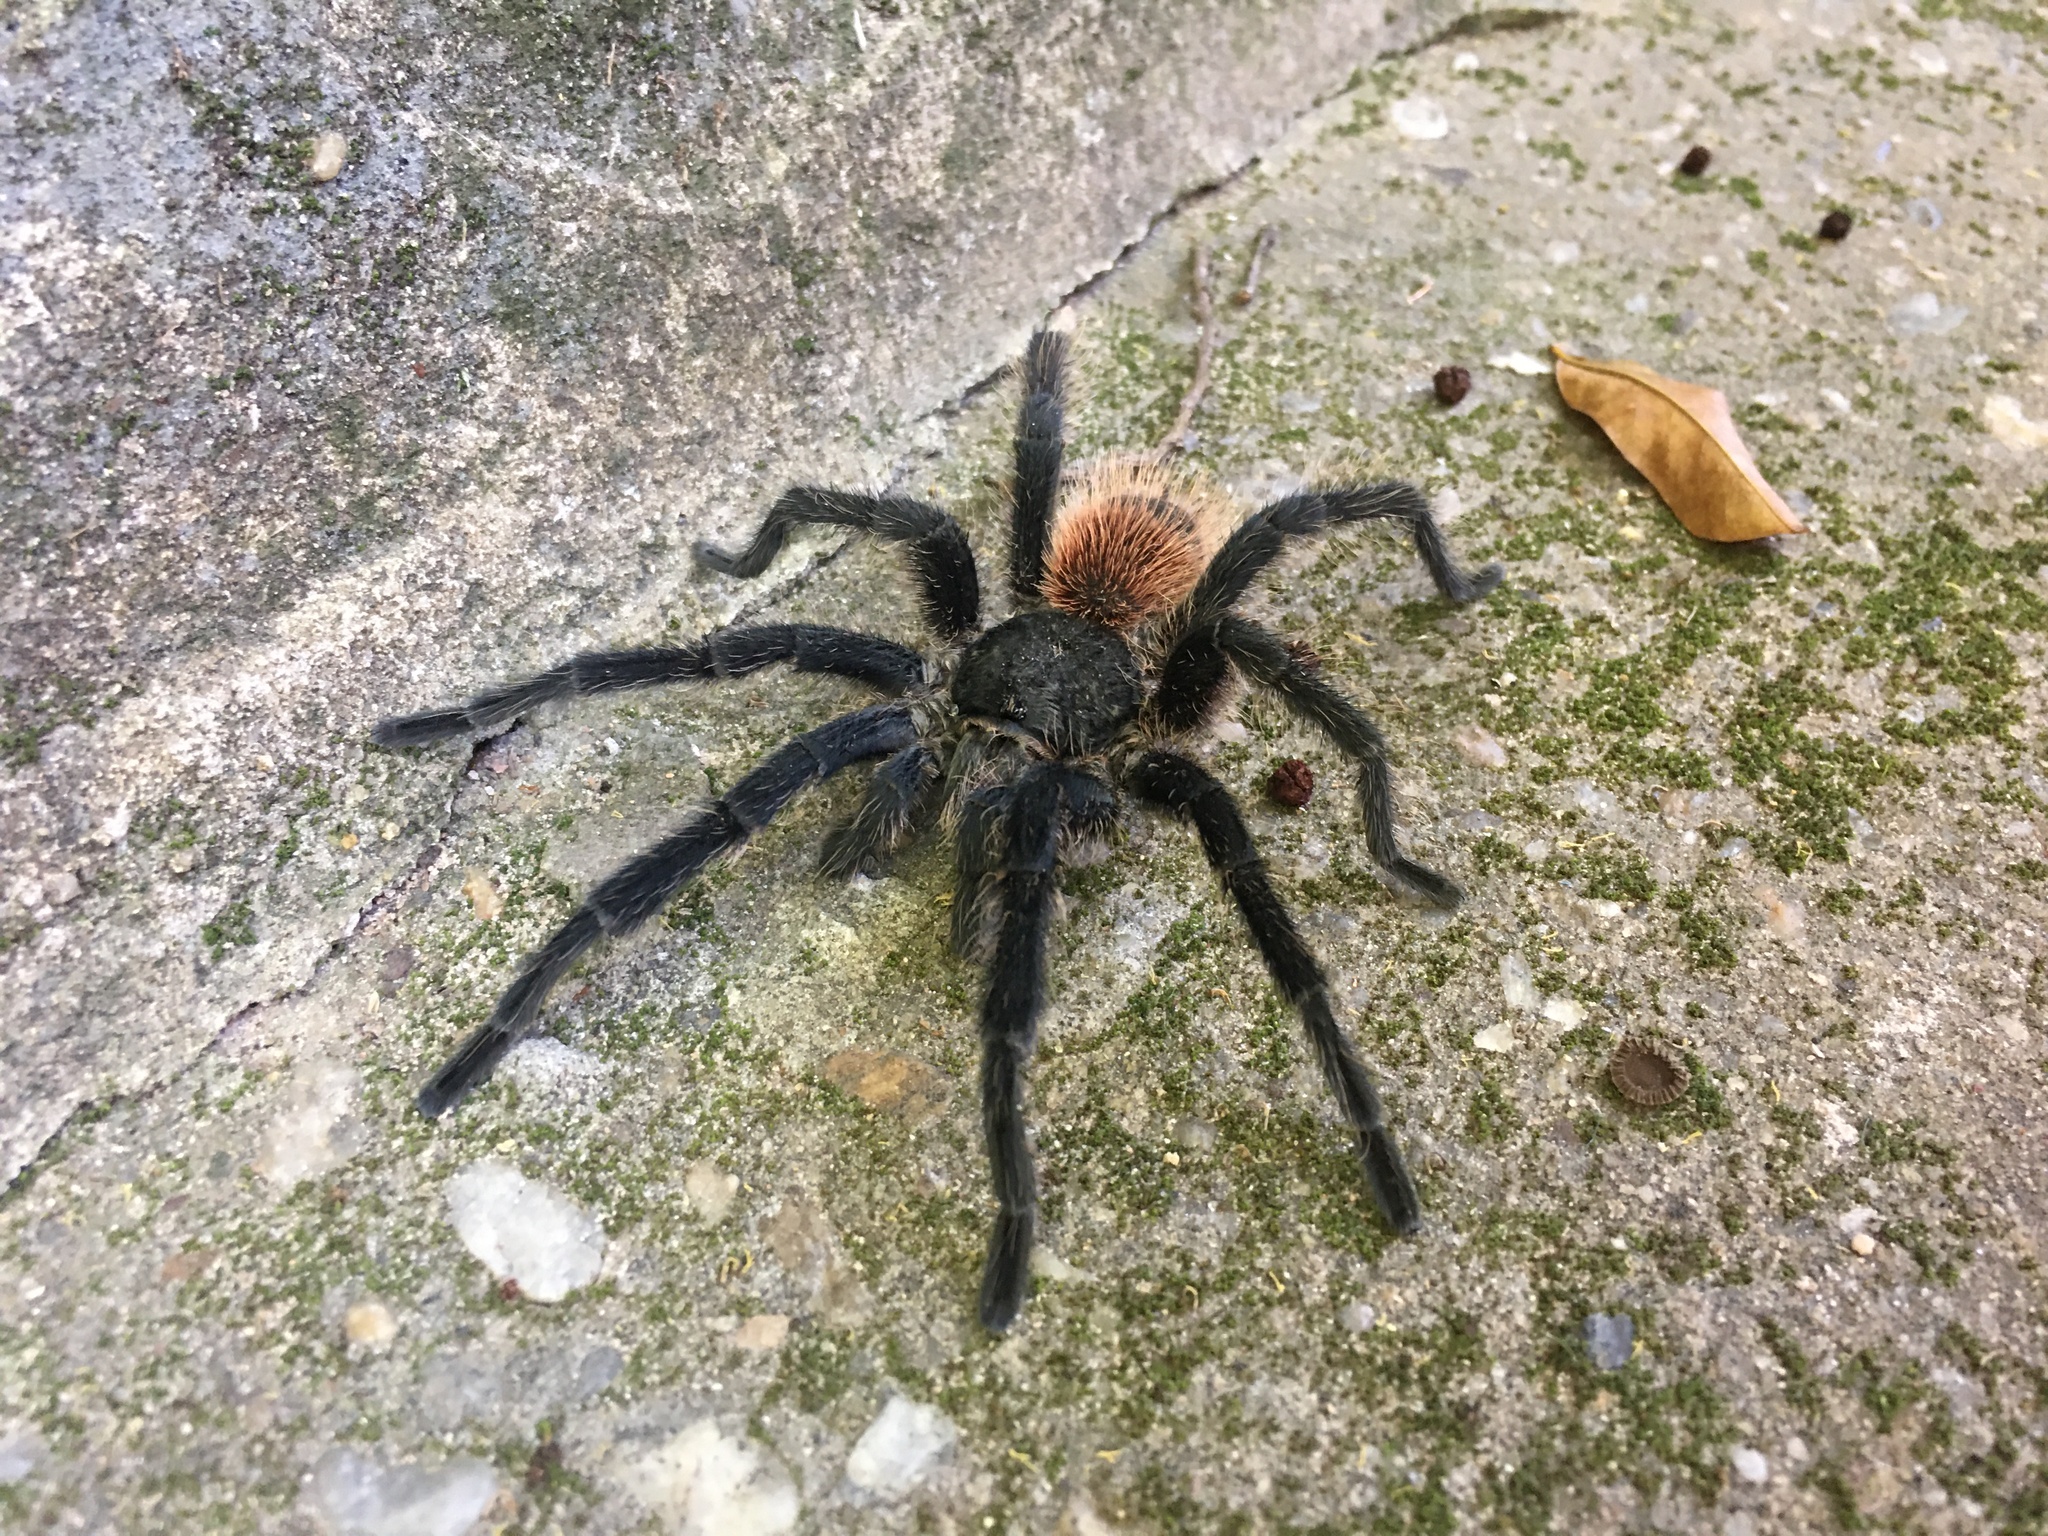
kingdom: Animalia
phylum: Arthropoda
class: Arachnida
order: Araneae
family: Theraphosidae
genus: Lasiodora
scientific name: Lasiodora
